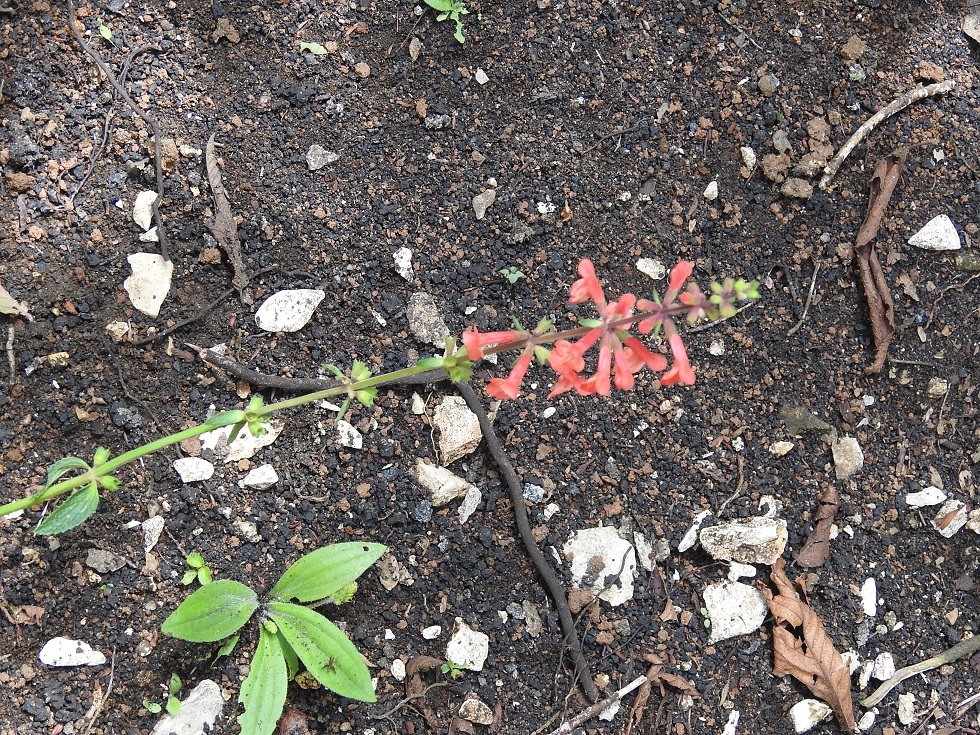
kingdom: Plantae
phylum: Tracheophyta
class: Magnoliopsida
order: Lamiales
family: Lamiaceae
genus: Stachys
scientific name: Stachys coccinea
